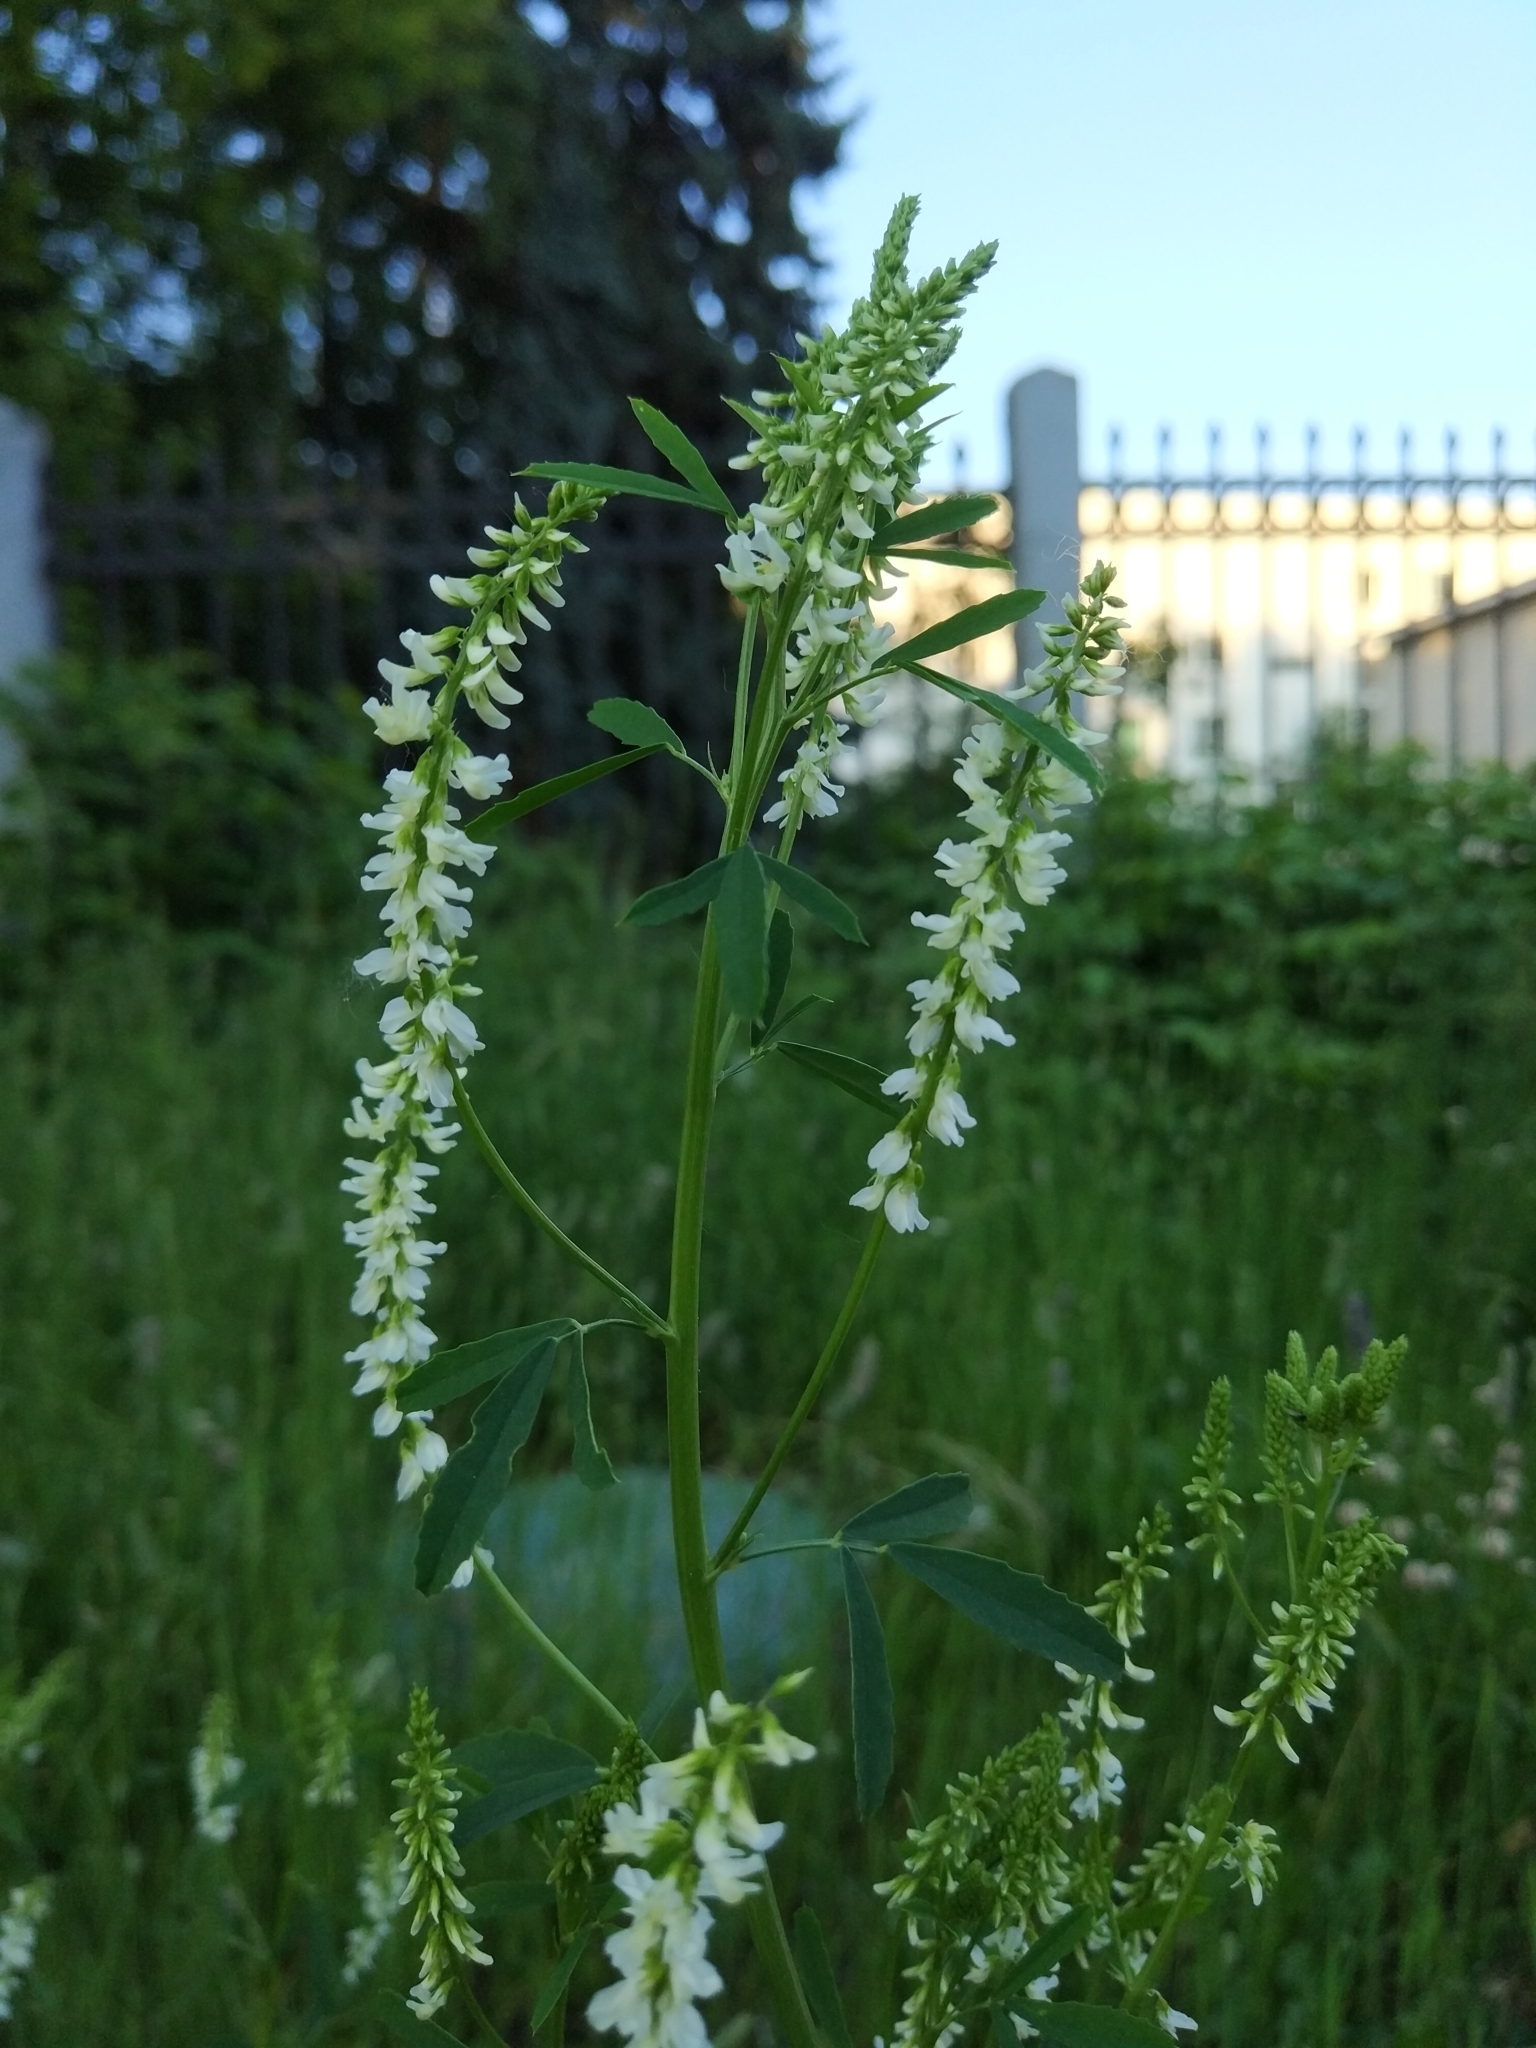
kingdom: Plantae
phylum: Tracheophyta
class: Magnoliopsida
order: Fabales
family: Fabaceae
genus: Melilotus
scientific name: Melilotus albus
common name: White melilot
